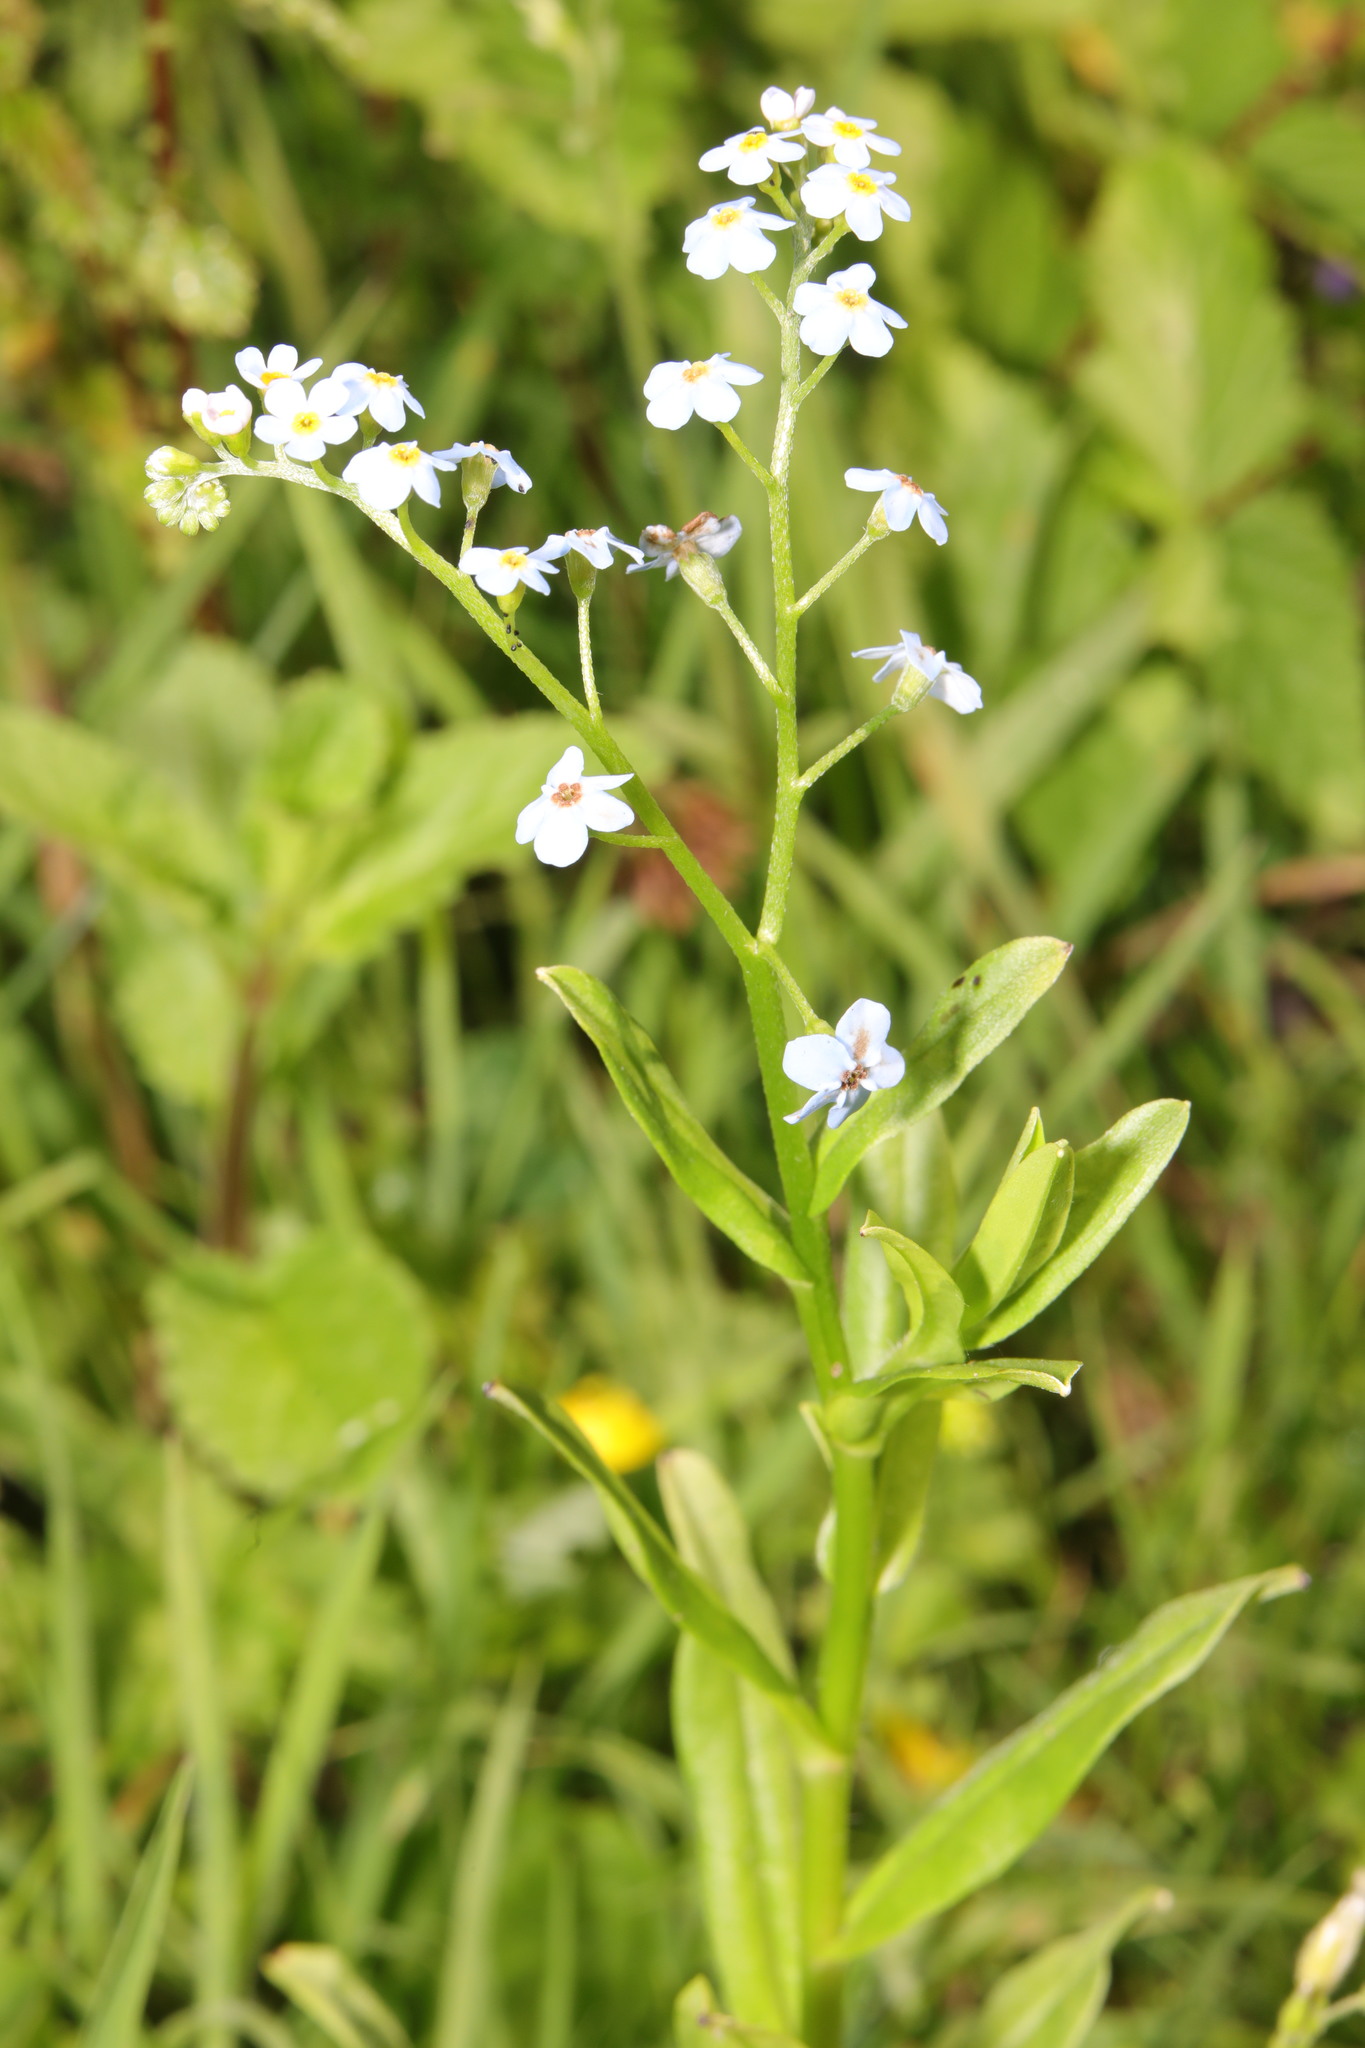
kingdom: Plantae
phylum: Tracheophyta
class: Magnoliopsida
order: Boraginales
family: Boraginaceae
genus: Myosotis
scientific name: Myosotis scorpioides
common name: Water forget-me-not
